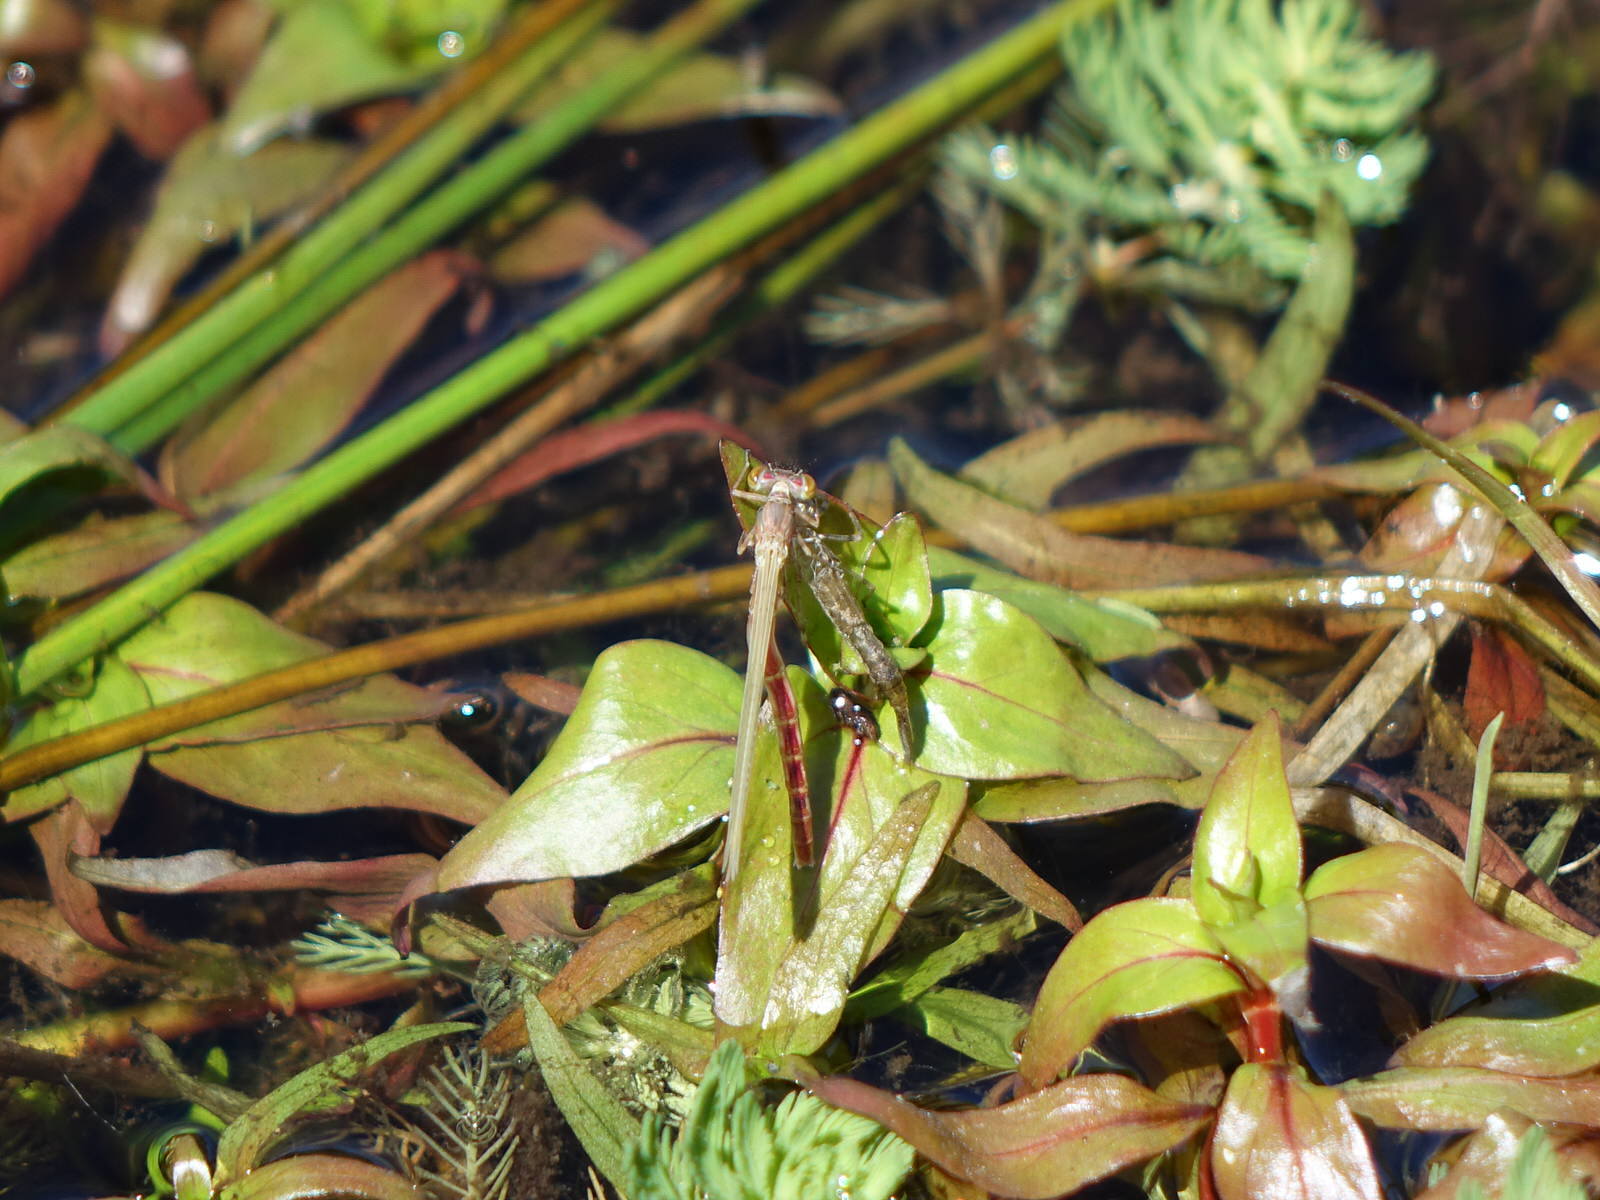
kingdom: Animalia
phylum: Arthropoda
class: Insecta
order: Odonata
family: Coenagrionidae
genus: Xanthocnemis
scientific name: Xanthocnemis zealandica
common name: Common redcoat damselfly
